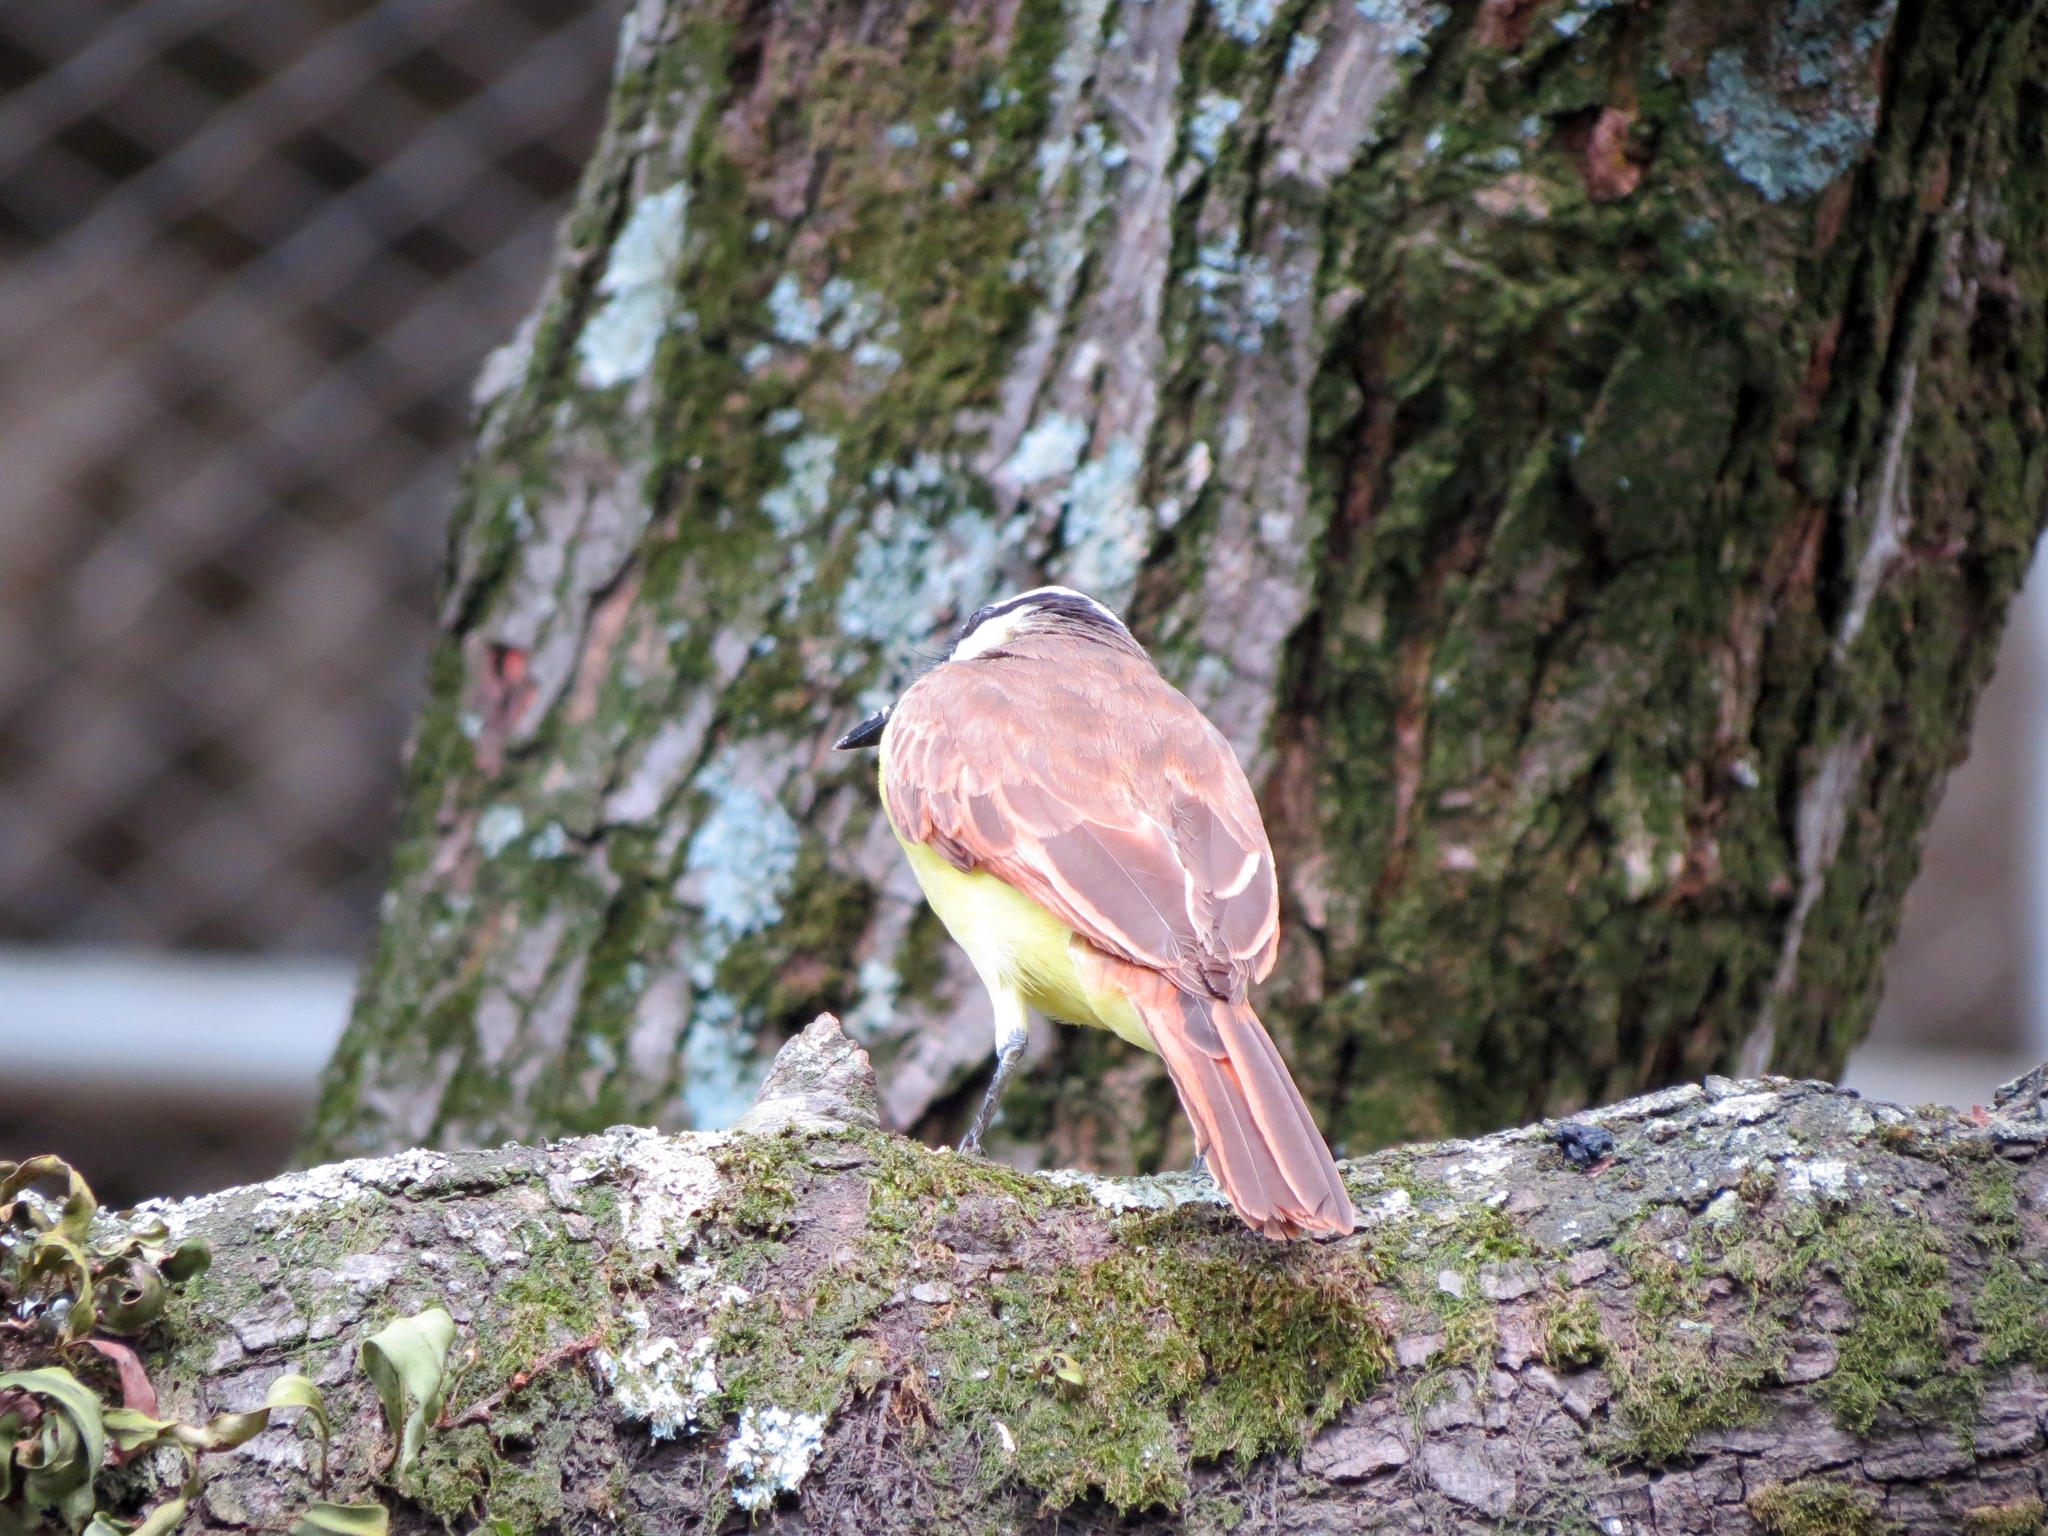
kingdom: Animalia
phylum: Chordata
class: Aves
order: Passeriformes
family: Tyrannidae
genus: Pitangus
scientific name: Pitangus sulphuratus
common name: Great kiskadee
